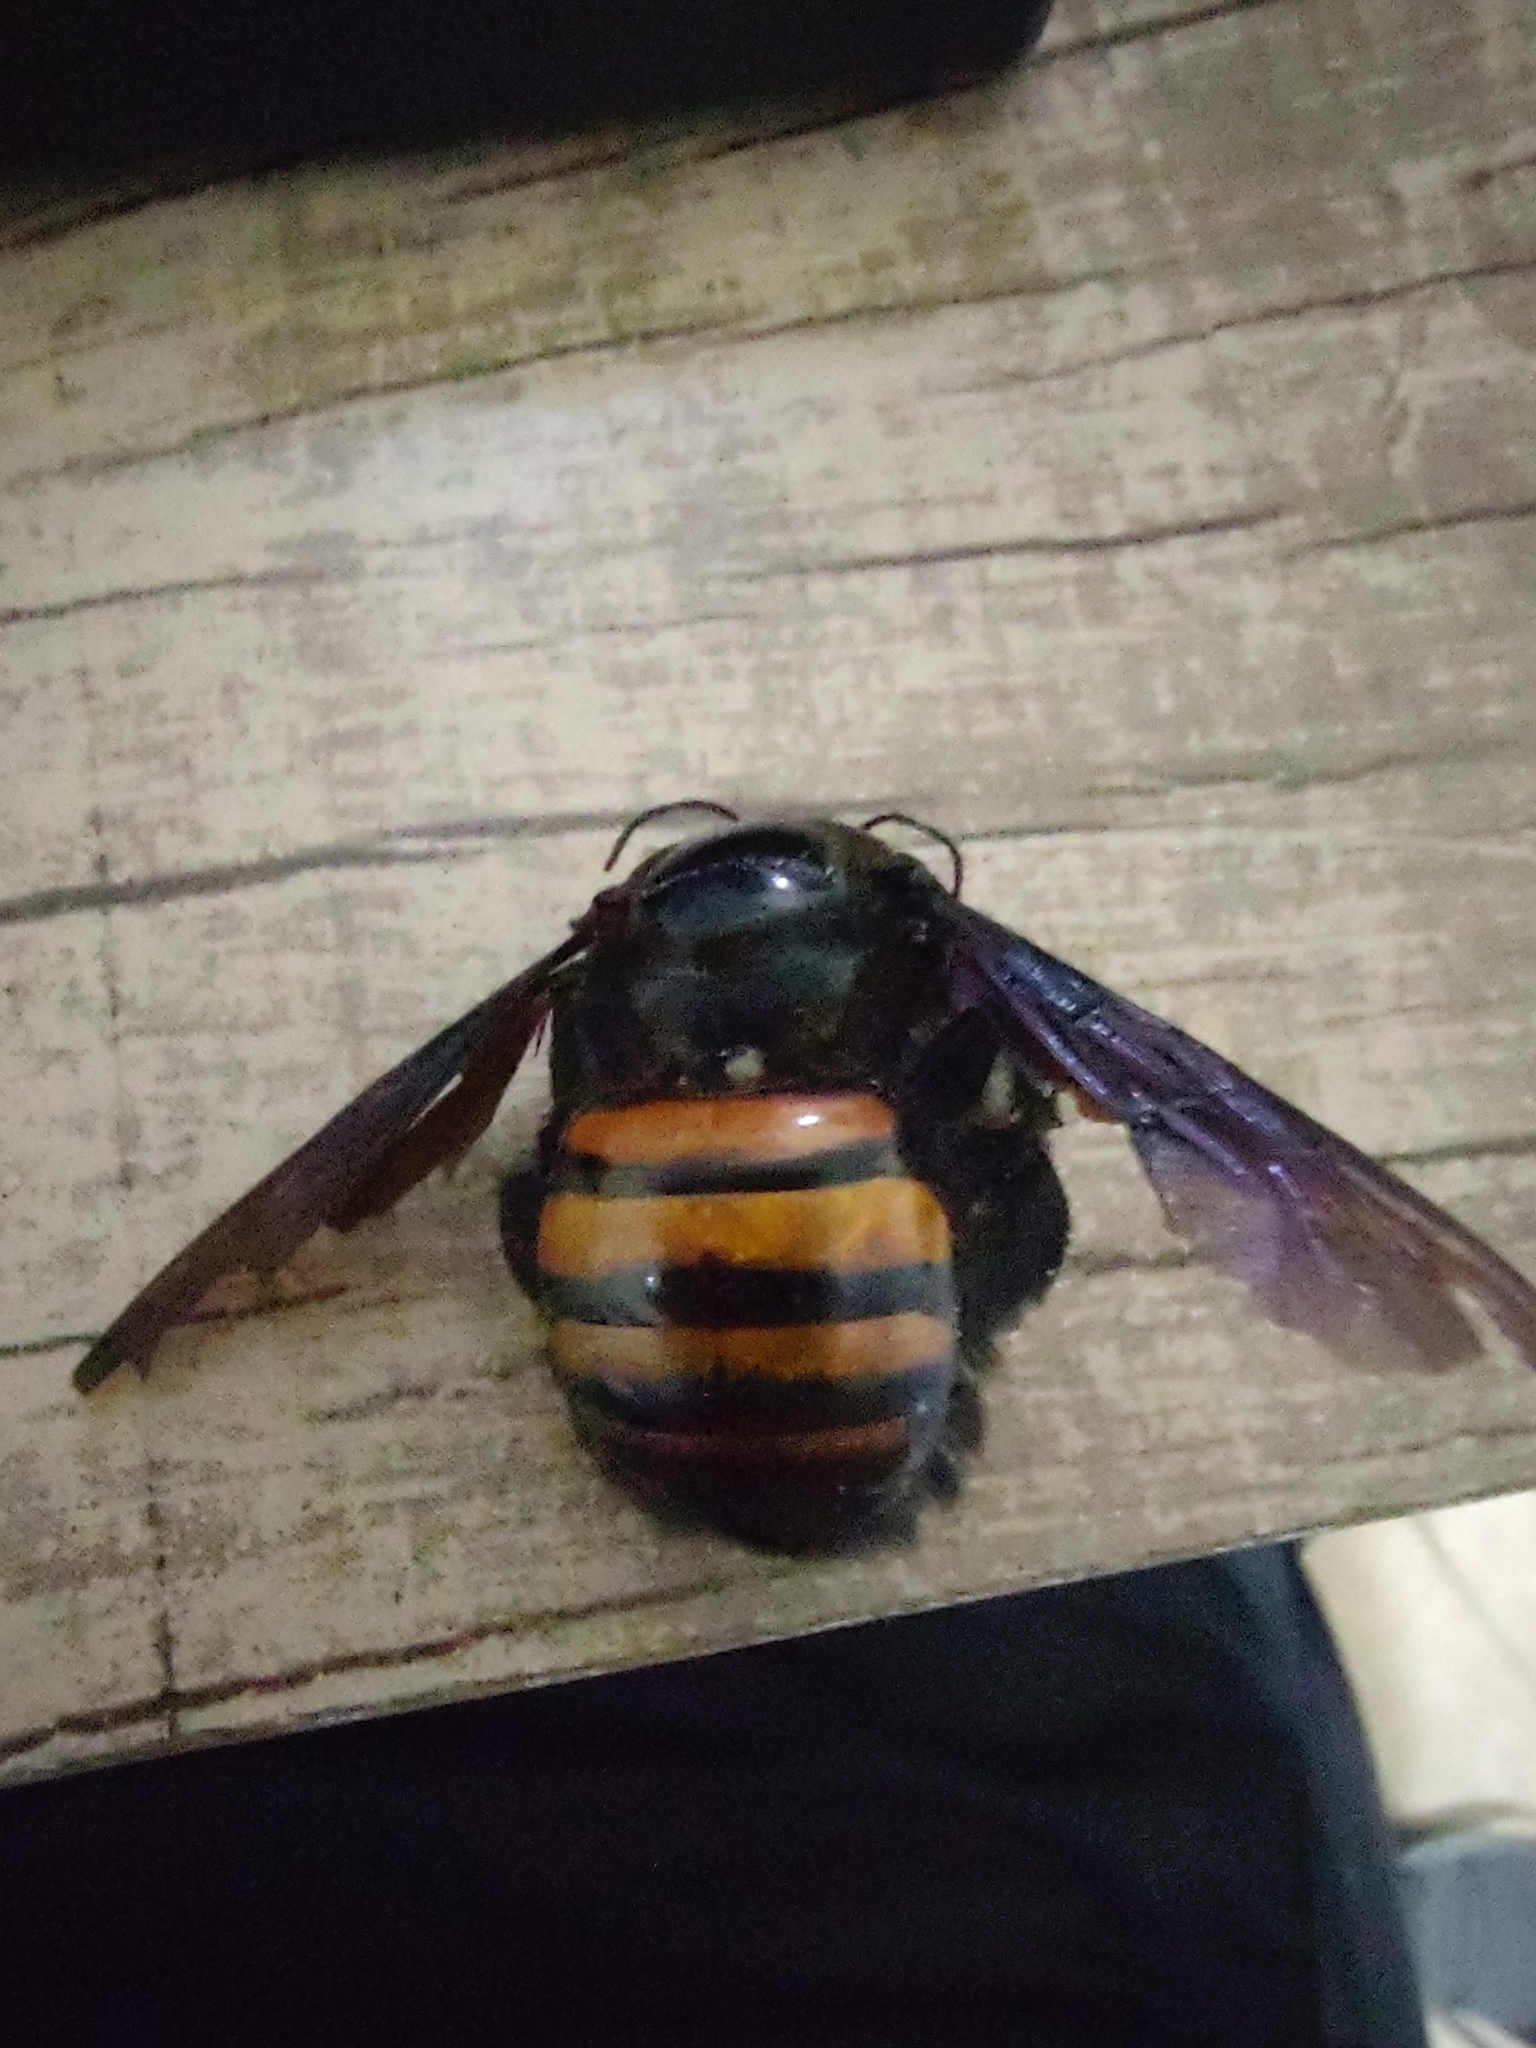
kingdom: Animalia
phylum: Arthropoda
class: Insecta
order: Hymenoptera
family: Apidae
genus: Xylocopa
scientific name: Xylocopa frontalis
